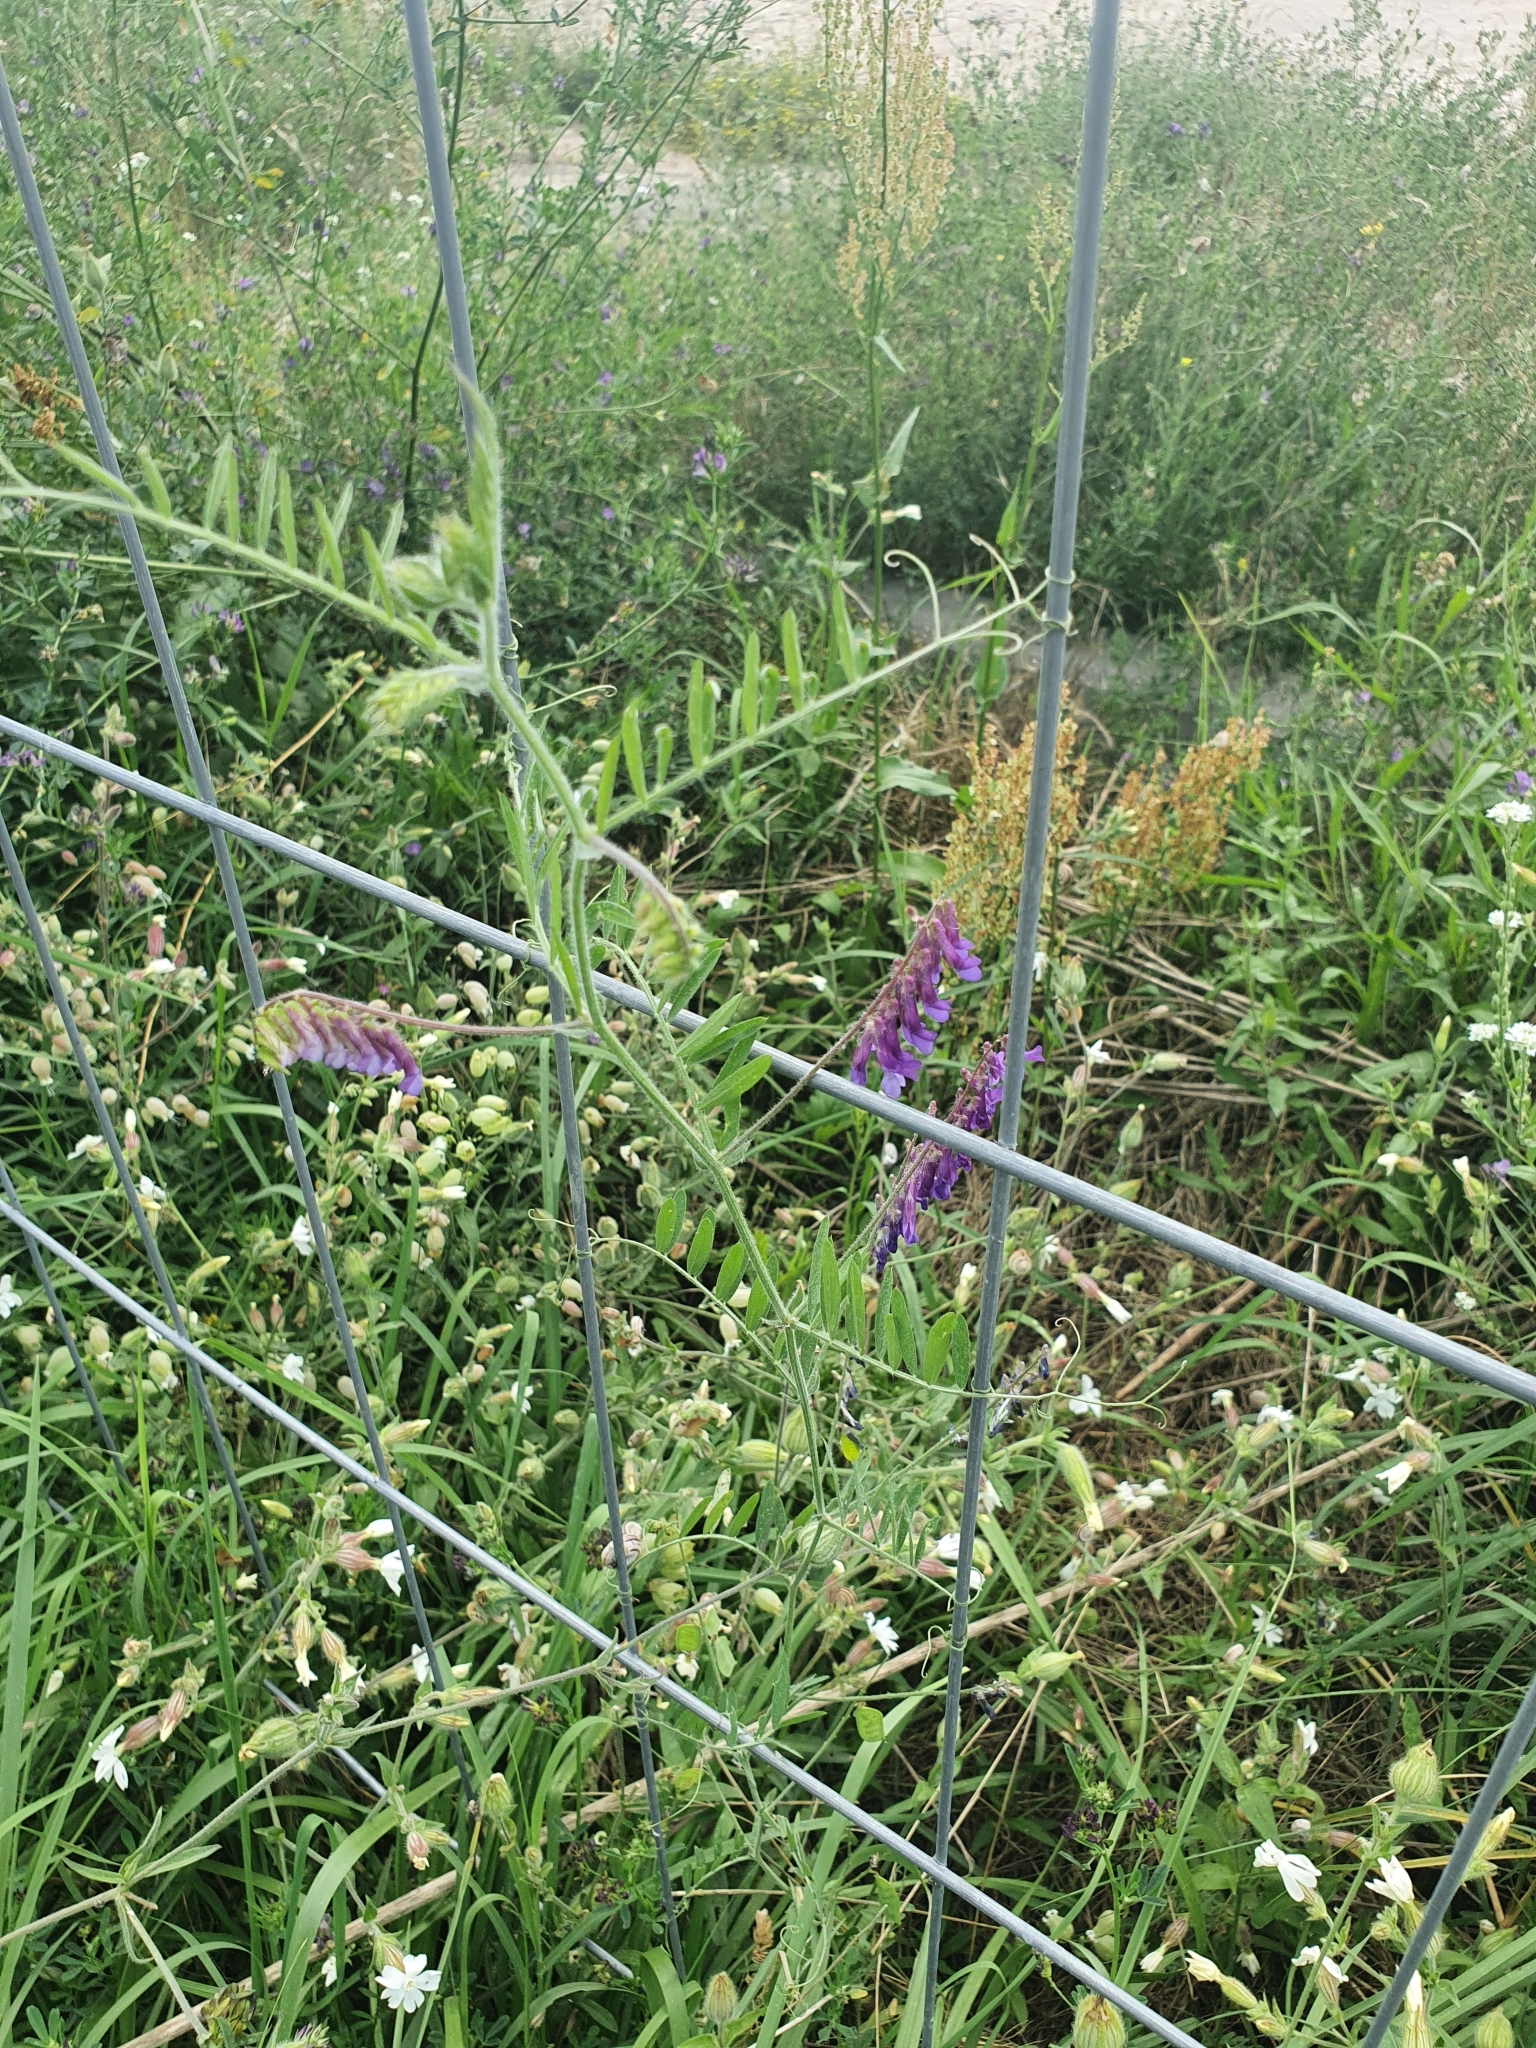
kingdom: Plantae
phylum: Tracheophyta
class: Magnoliopsida
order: Fabales
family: Fabaceae
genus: Vicia
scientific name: Vicia villosa
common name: Fodder vetch
